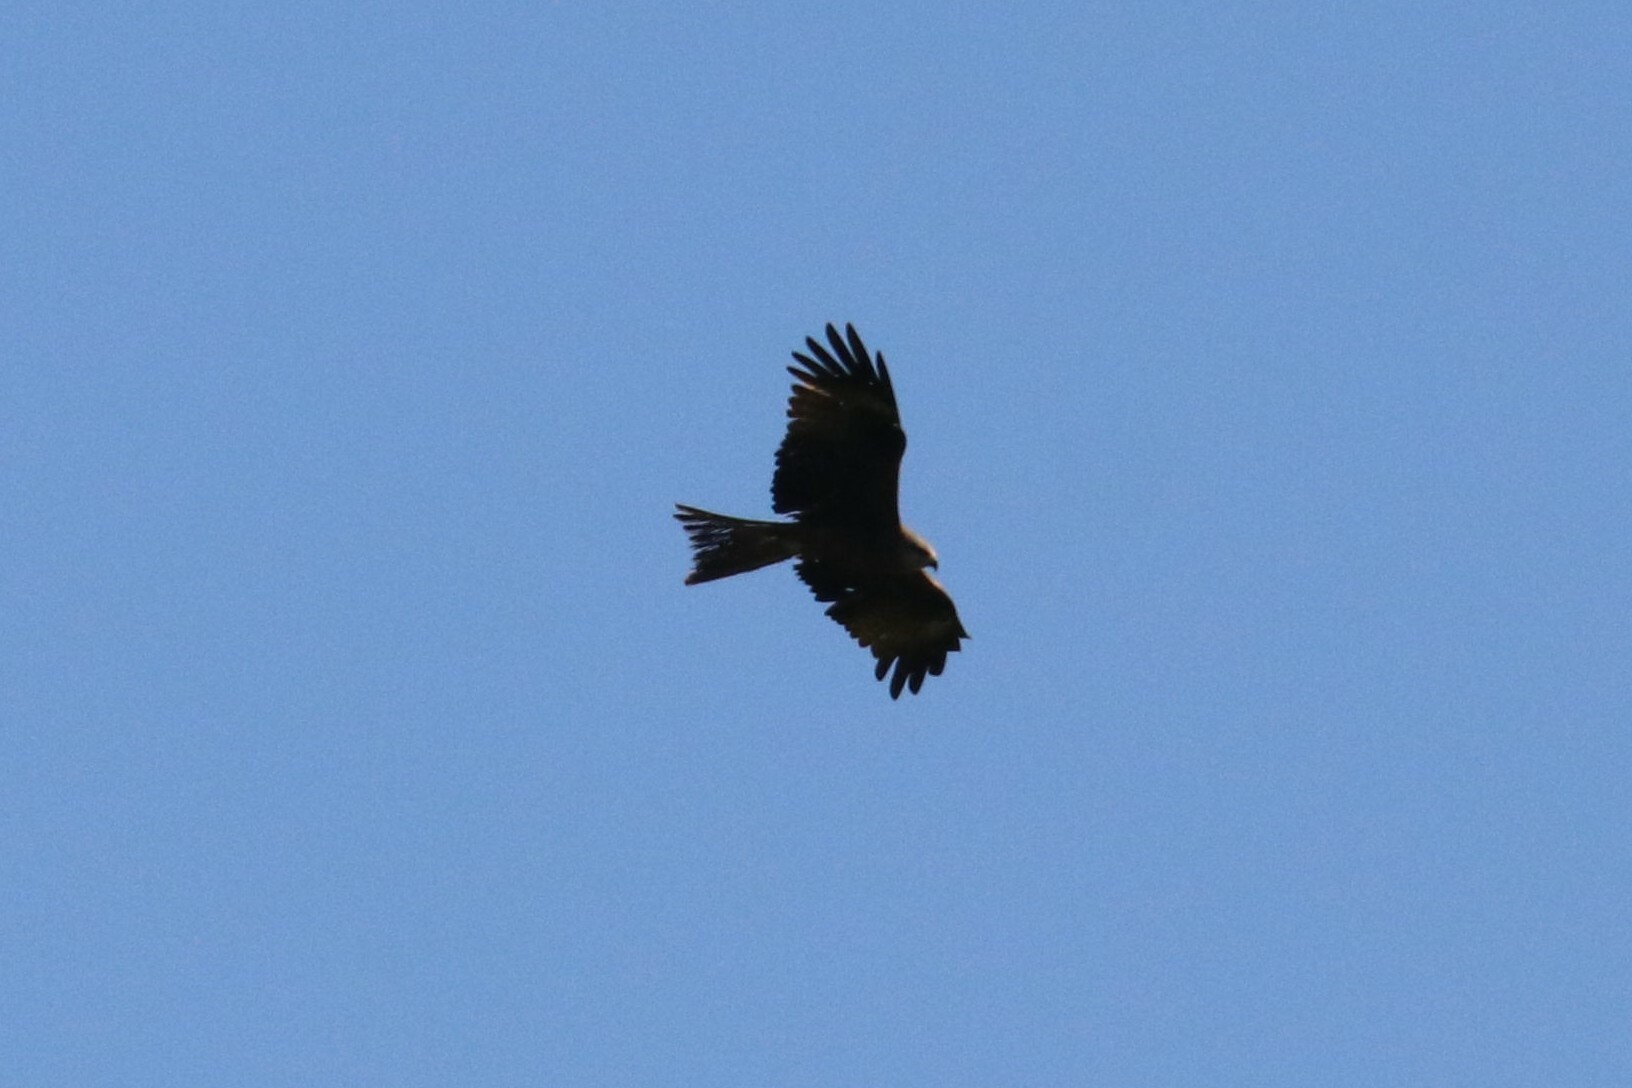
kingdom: Animalia
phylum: Chordata
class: Aves
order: Accipitriformes
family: Accipitridae
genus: Milvus
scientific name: Milvus migrans
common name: Black kite
